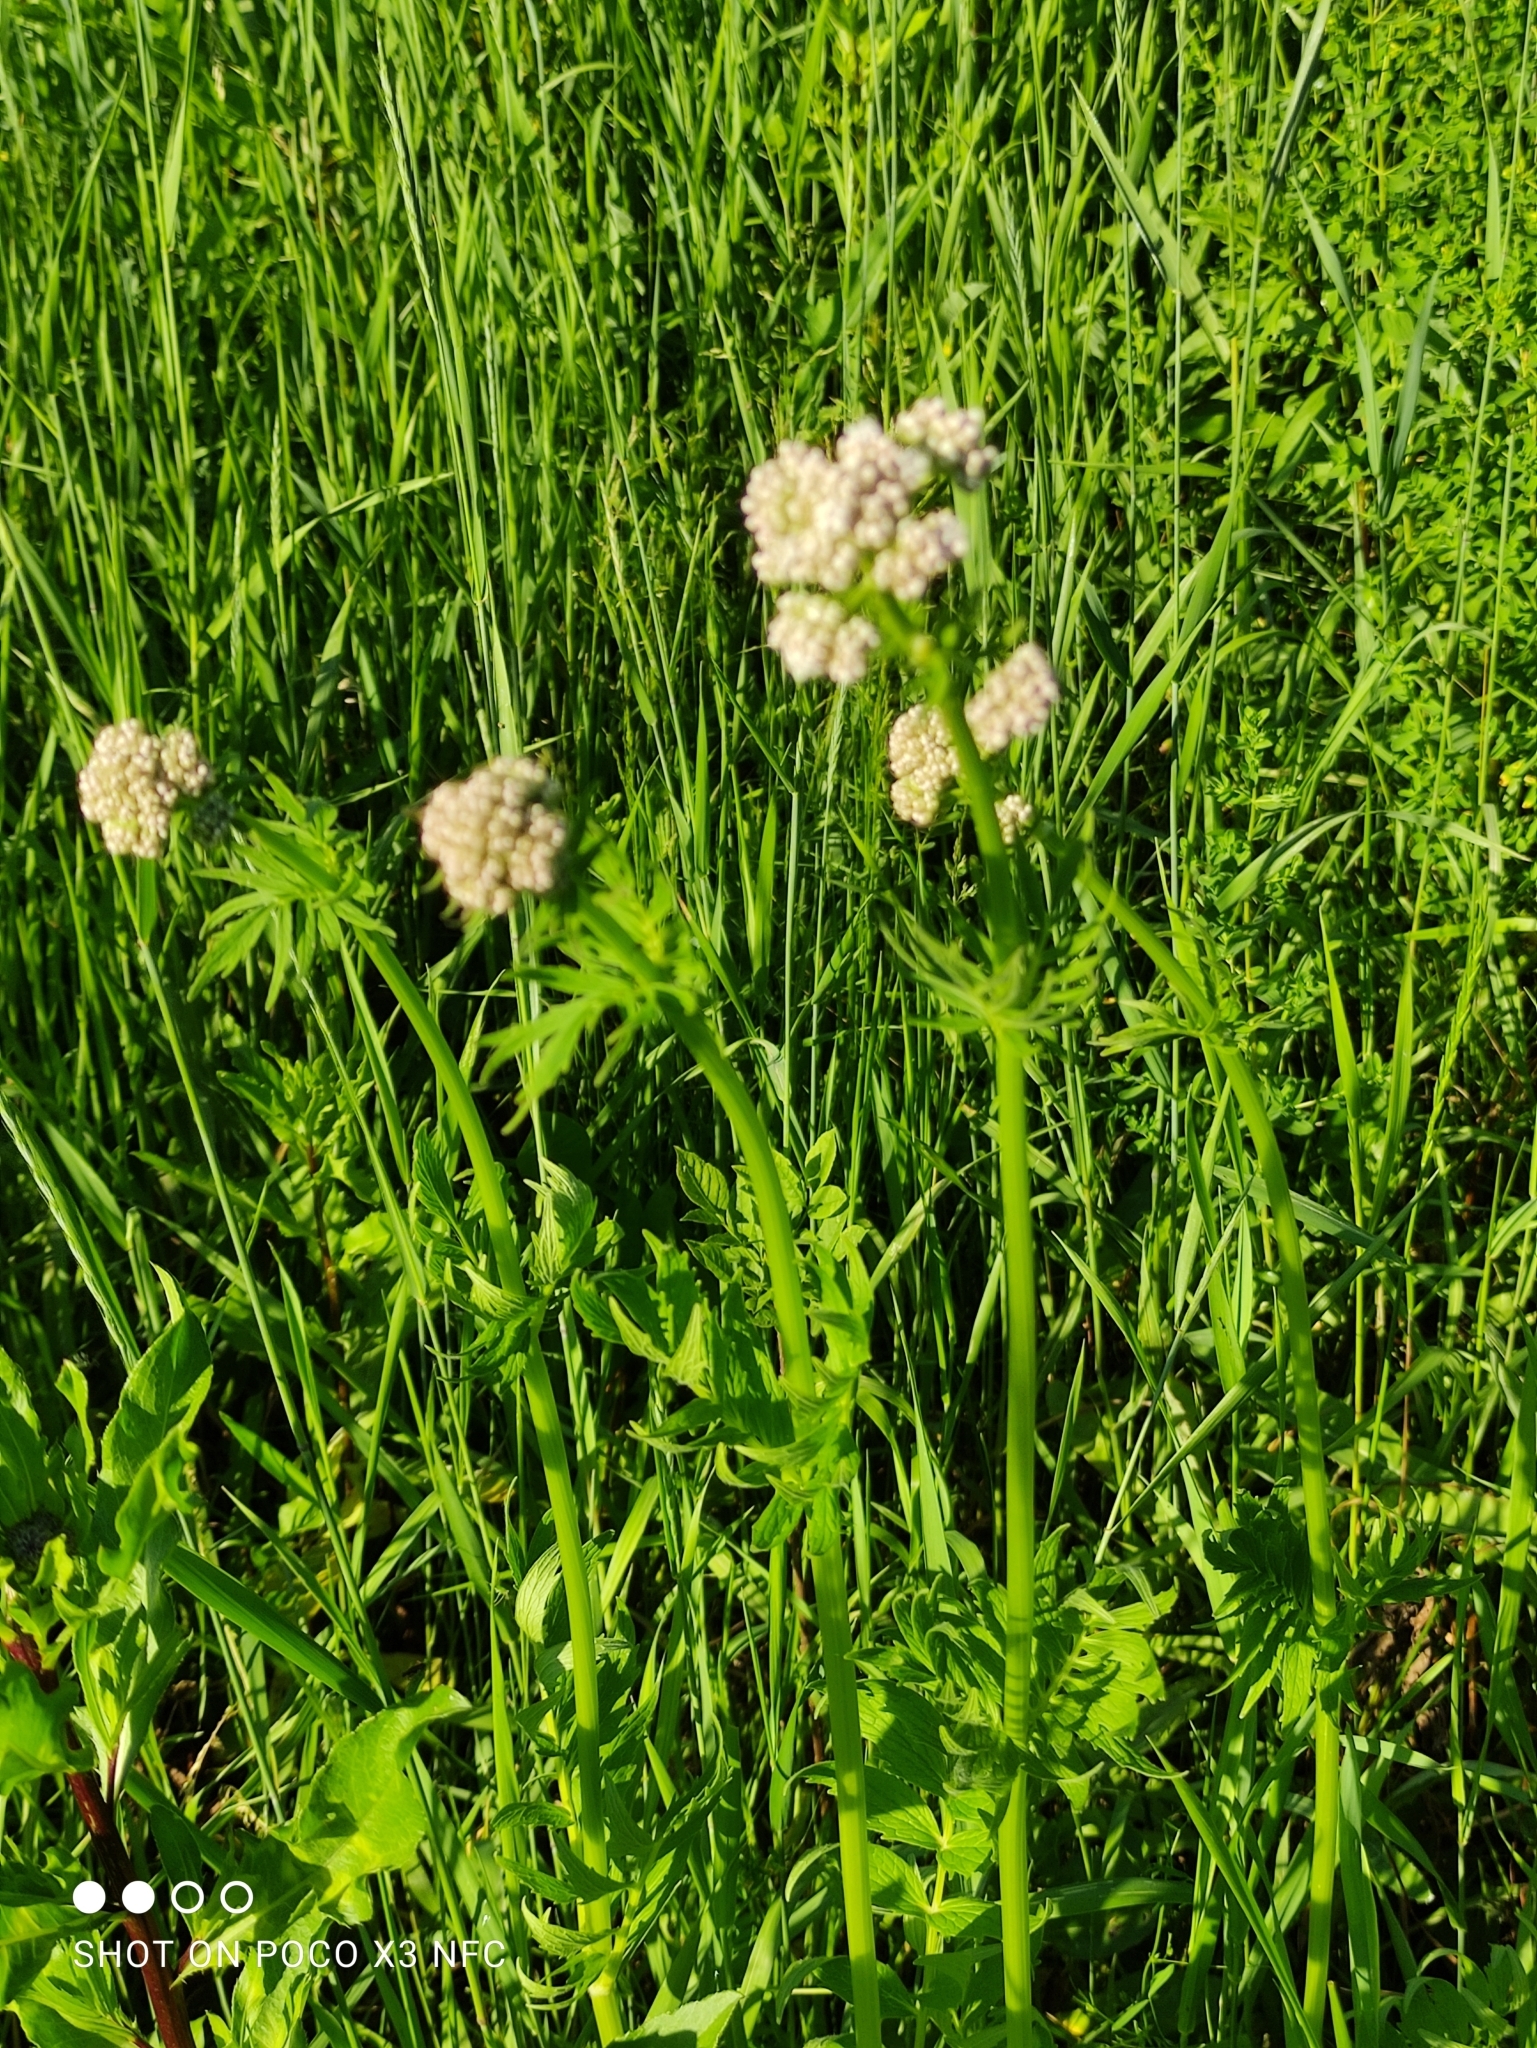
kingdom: Plantae
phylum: Tracheophyta
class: Magnoliopsida
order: Dipsacales
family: Caprifoliaceae
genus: Valeriana
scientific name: Valeriana officinalis
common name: Common valerian
